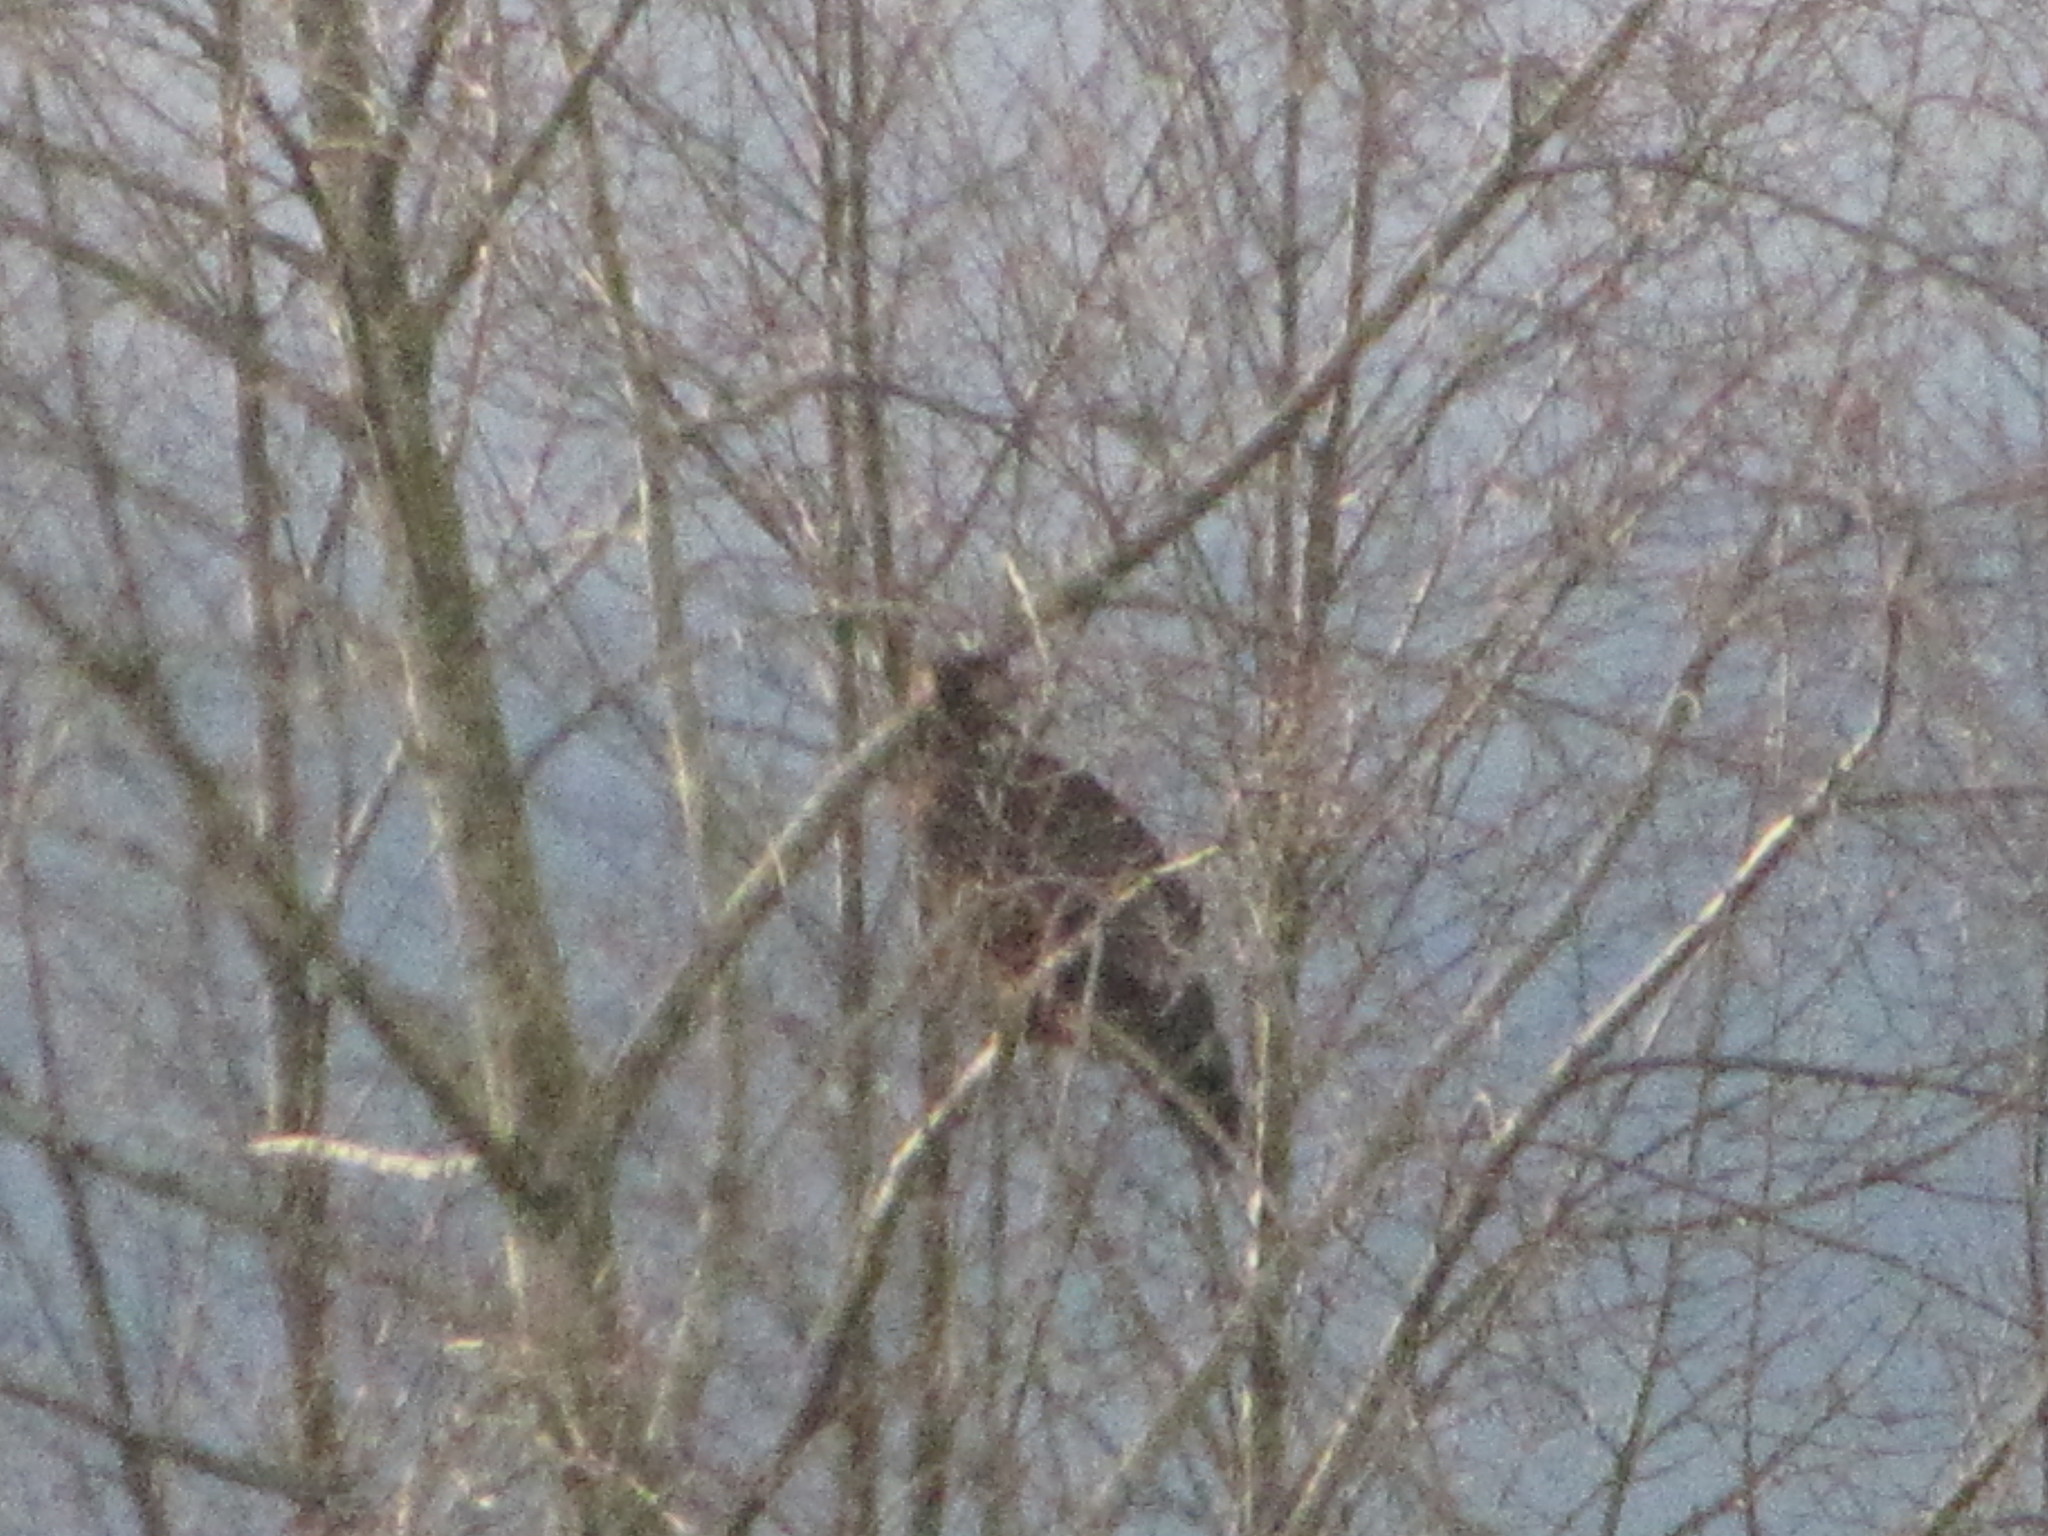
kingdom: Animalia
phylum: Chordata
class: Aves
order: Accipitriformes
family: Accipitridae
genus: Haliaeetus
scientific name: Haliaeetus leucocephalus
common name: Bald eagle
